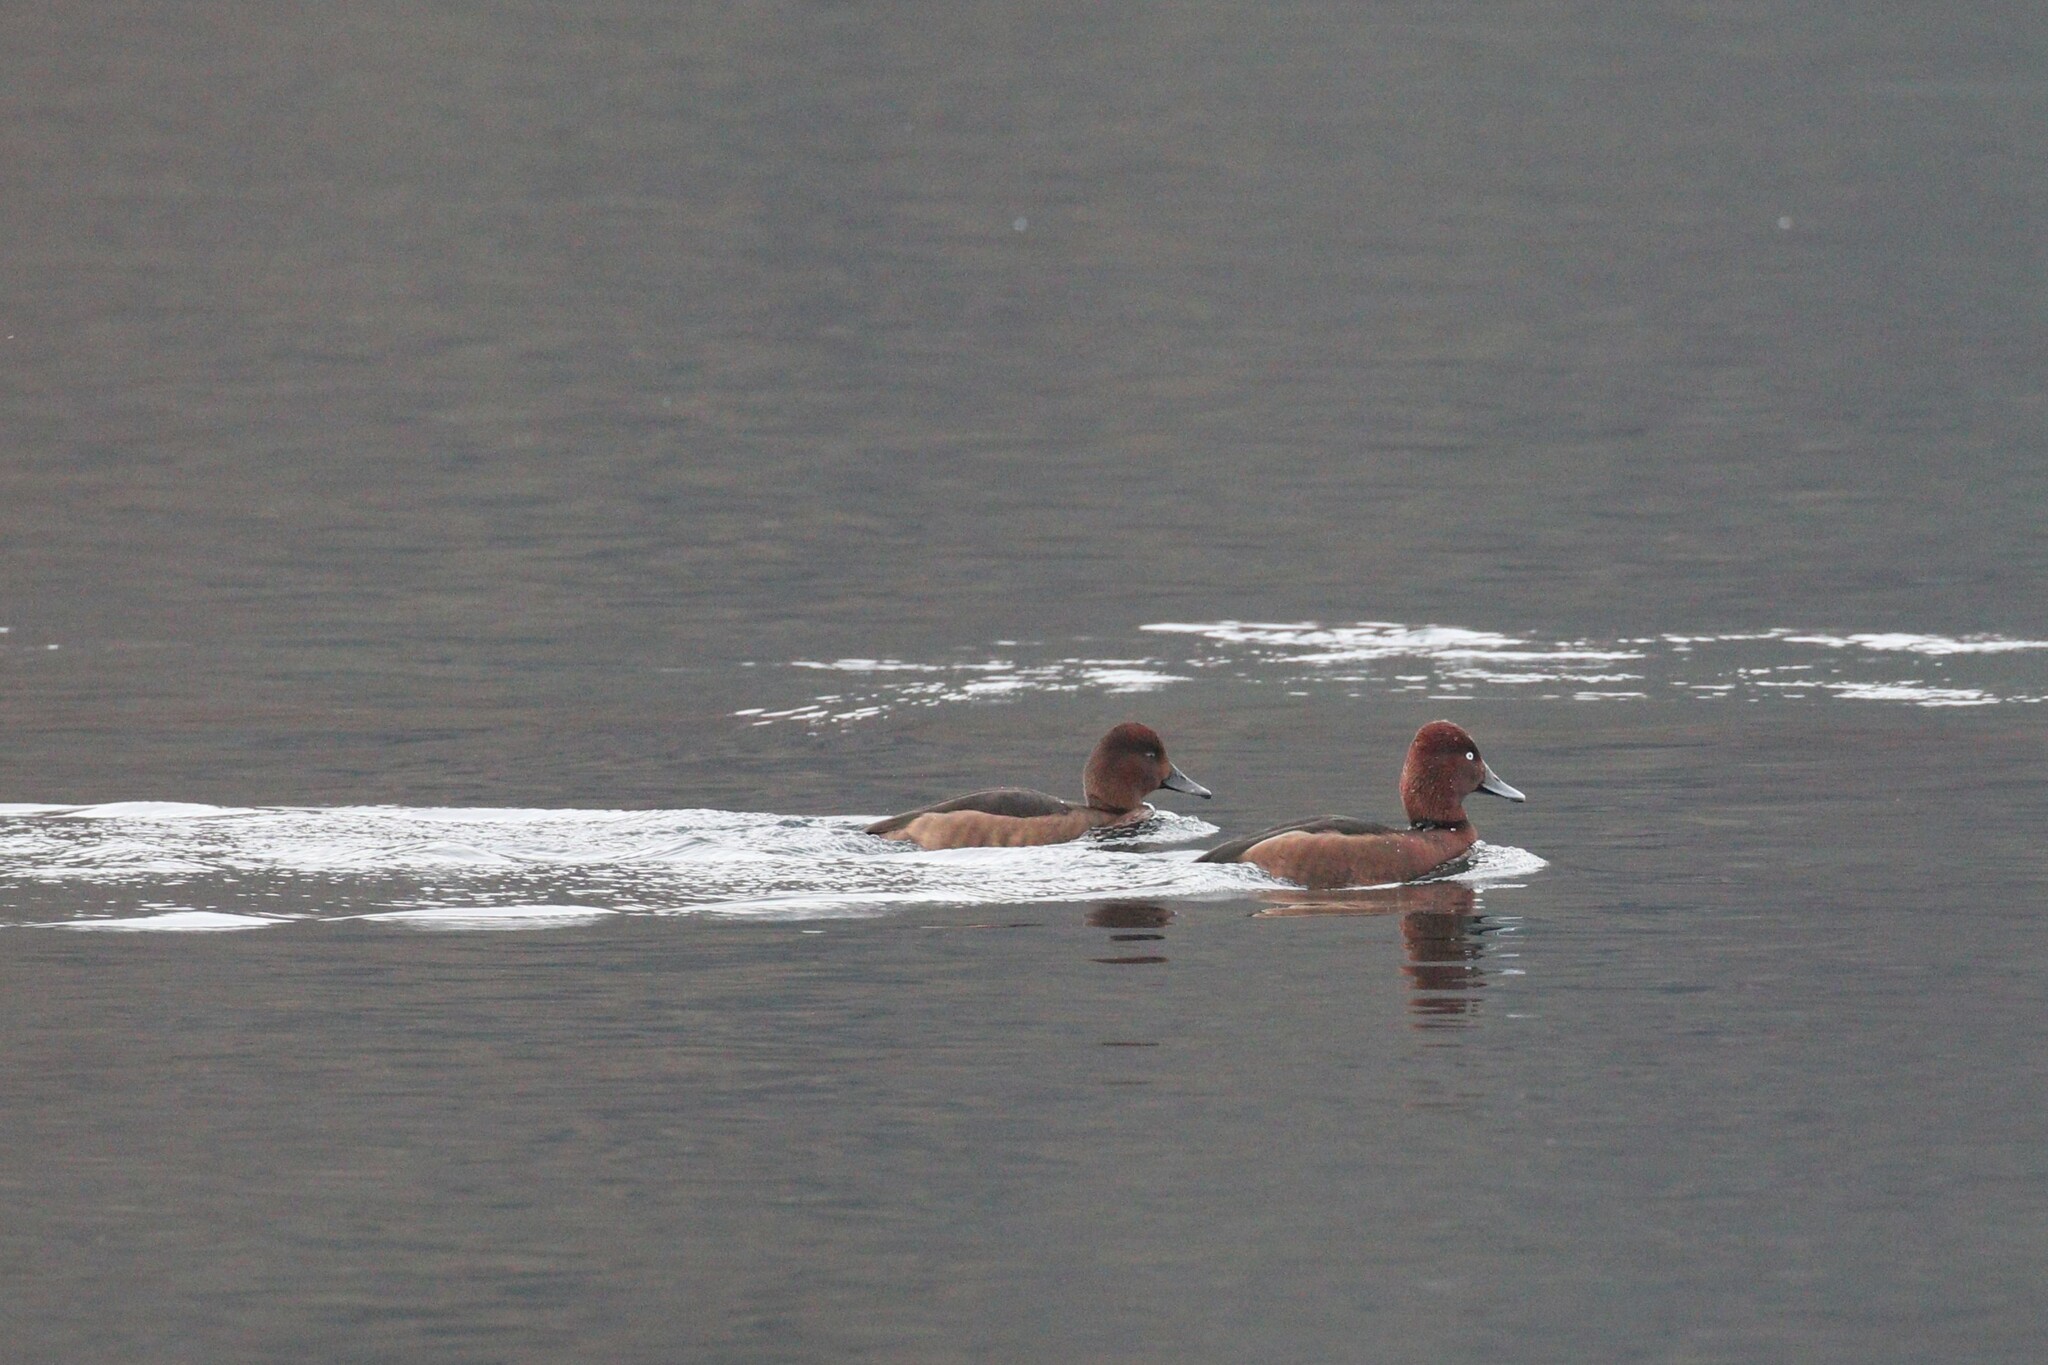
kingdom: Animalia
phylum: Chordata
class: Aves
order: Anseriformes
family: Anatidae
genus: Aythya
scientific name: Aythya nyroca
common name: Ferruginous duck
